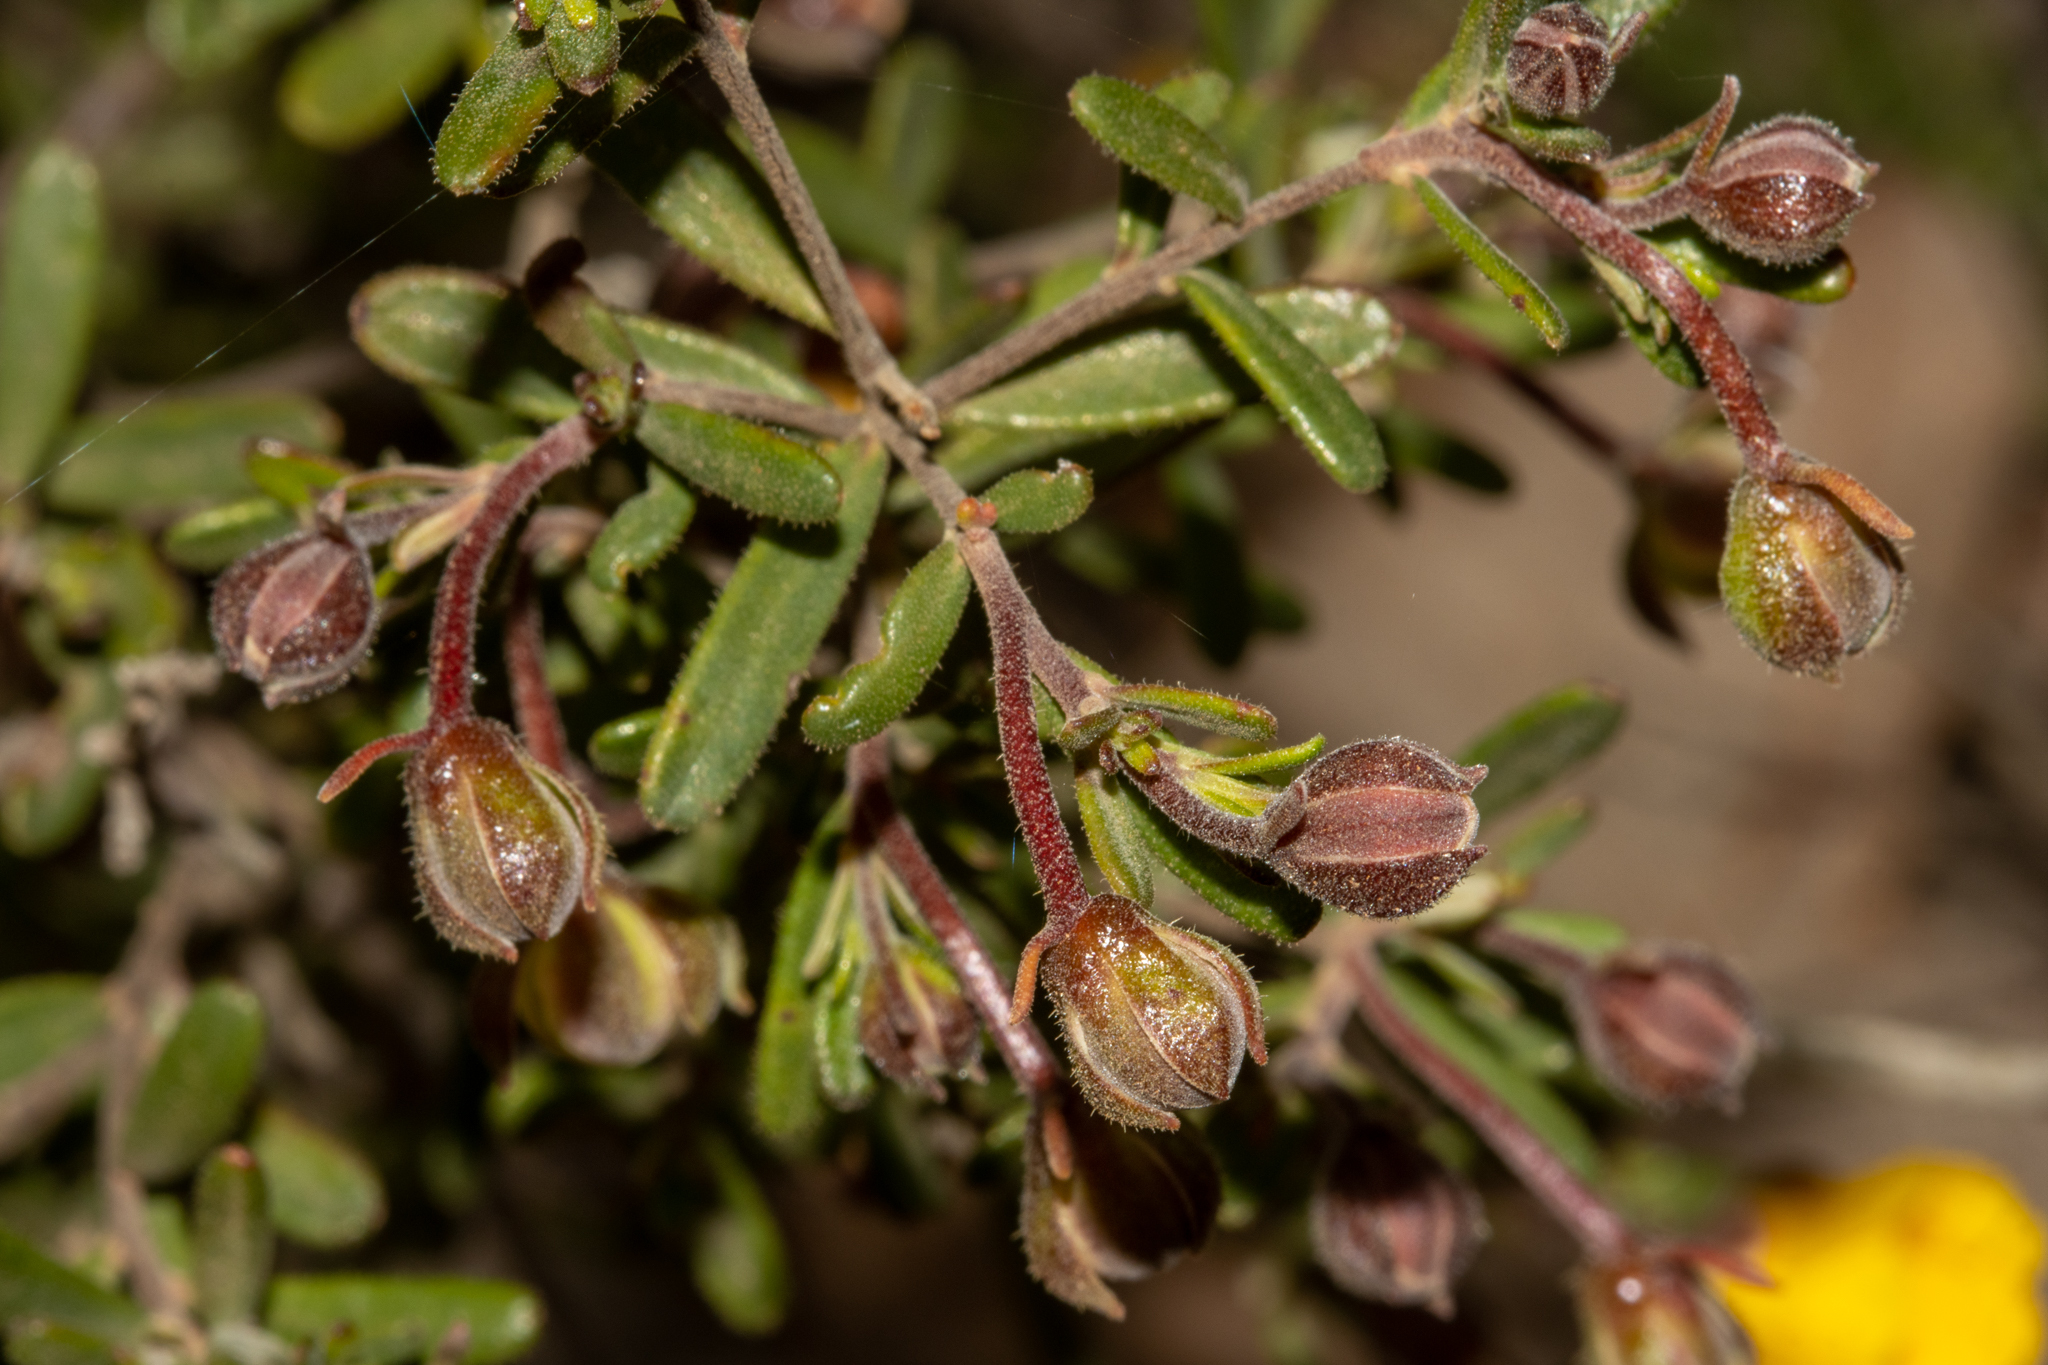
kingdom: Plantae
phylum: Tracheophyta
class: Magnoliopsida
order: Dilleniales
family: Dilleniaceae
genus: Hibbertia
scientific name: Hibbertia hypericoides
